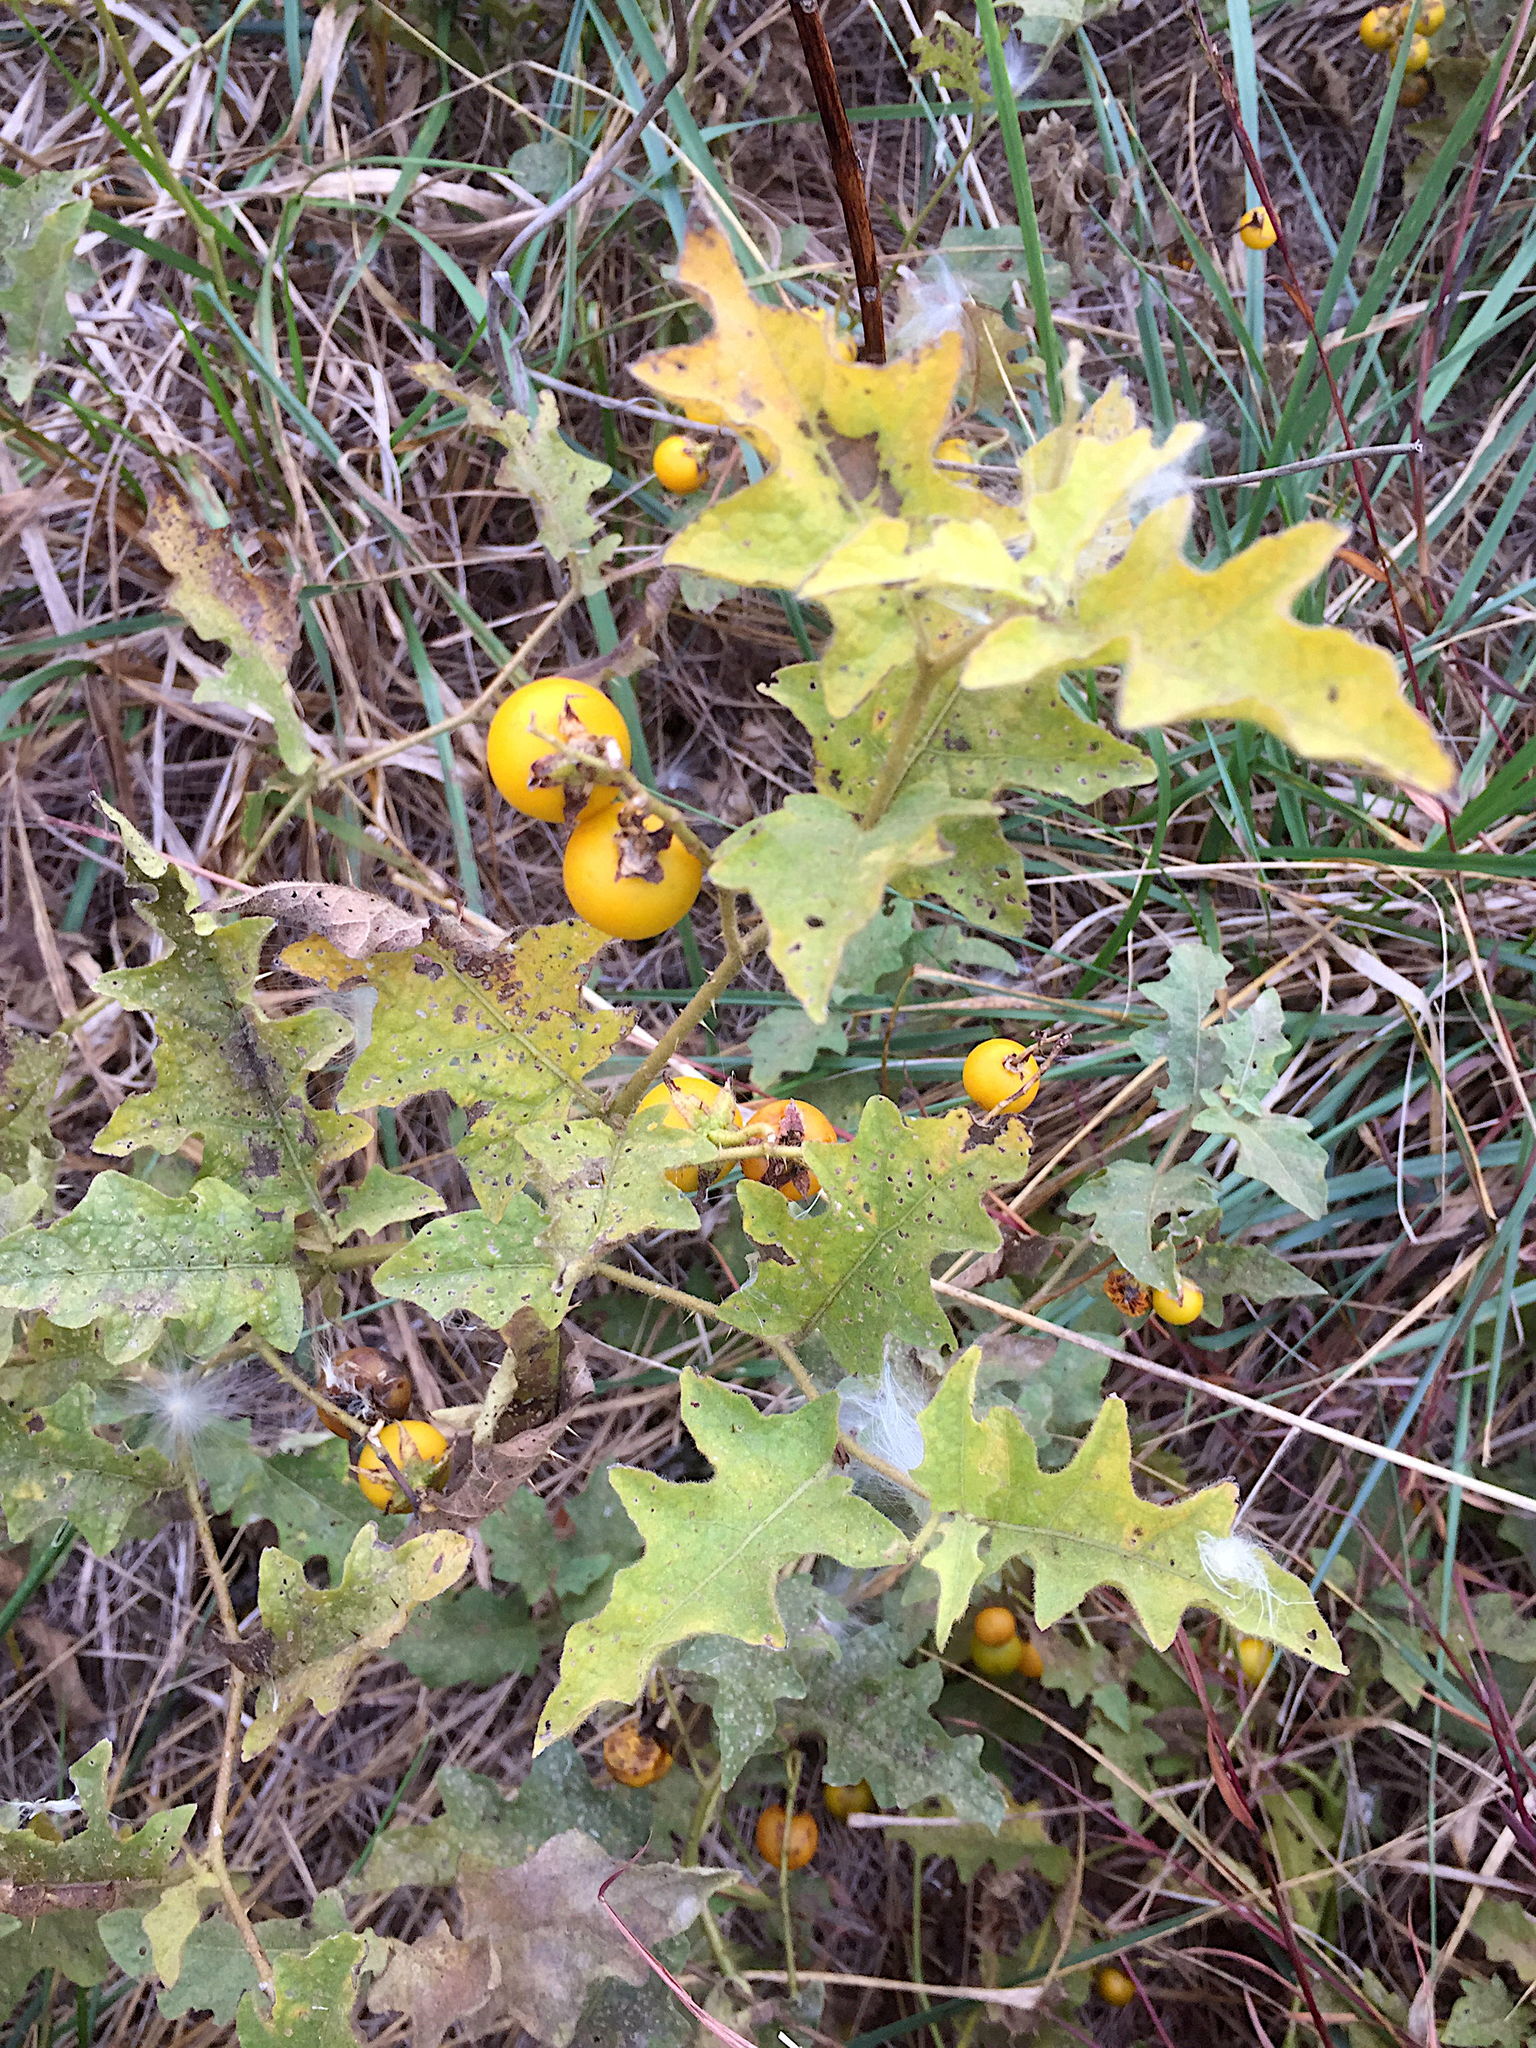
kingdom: Plantae
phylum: Tracheophyta
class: Magnoliopsida
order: Solanales
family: Solanaceae
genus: Solanum
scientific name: Solanum carolinense
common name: Horse-nettle
